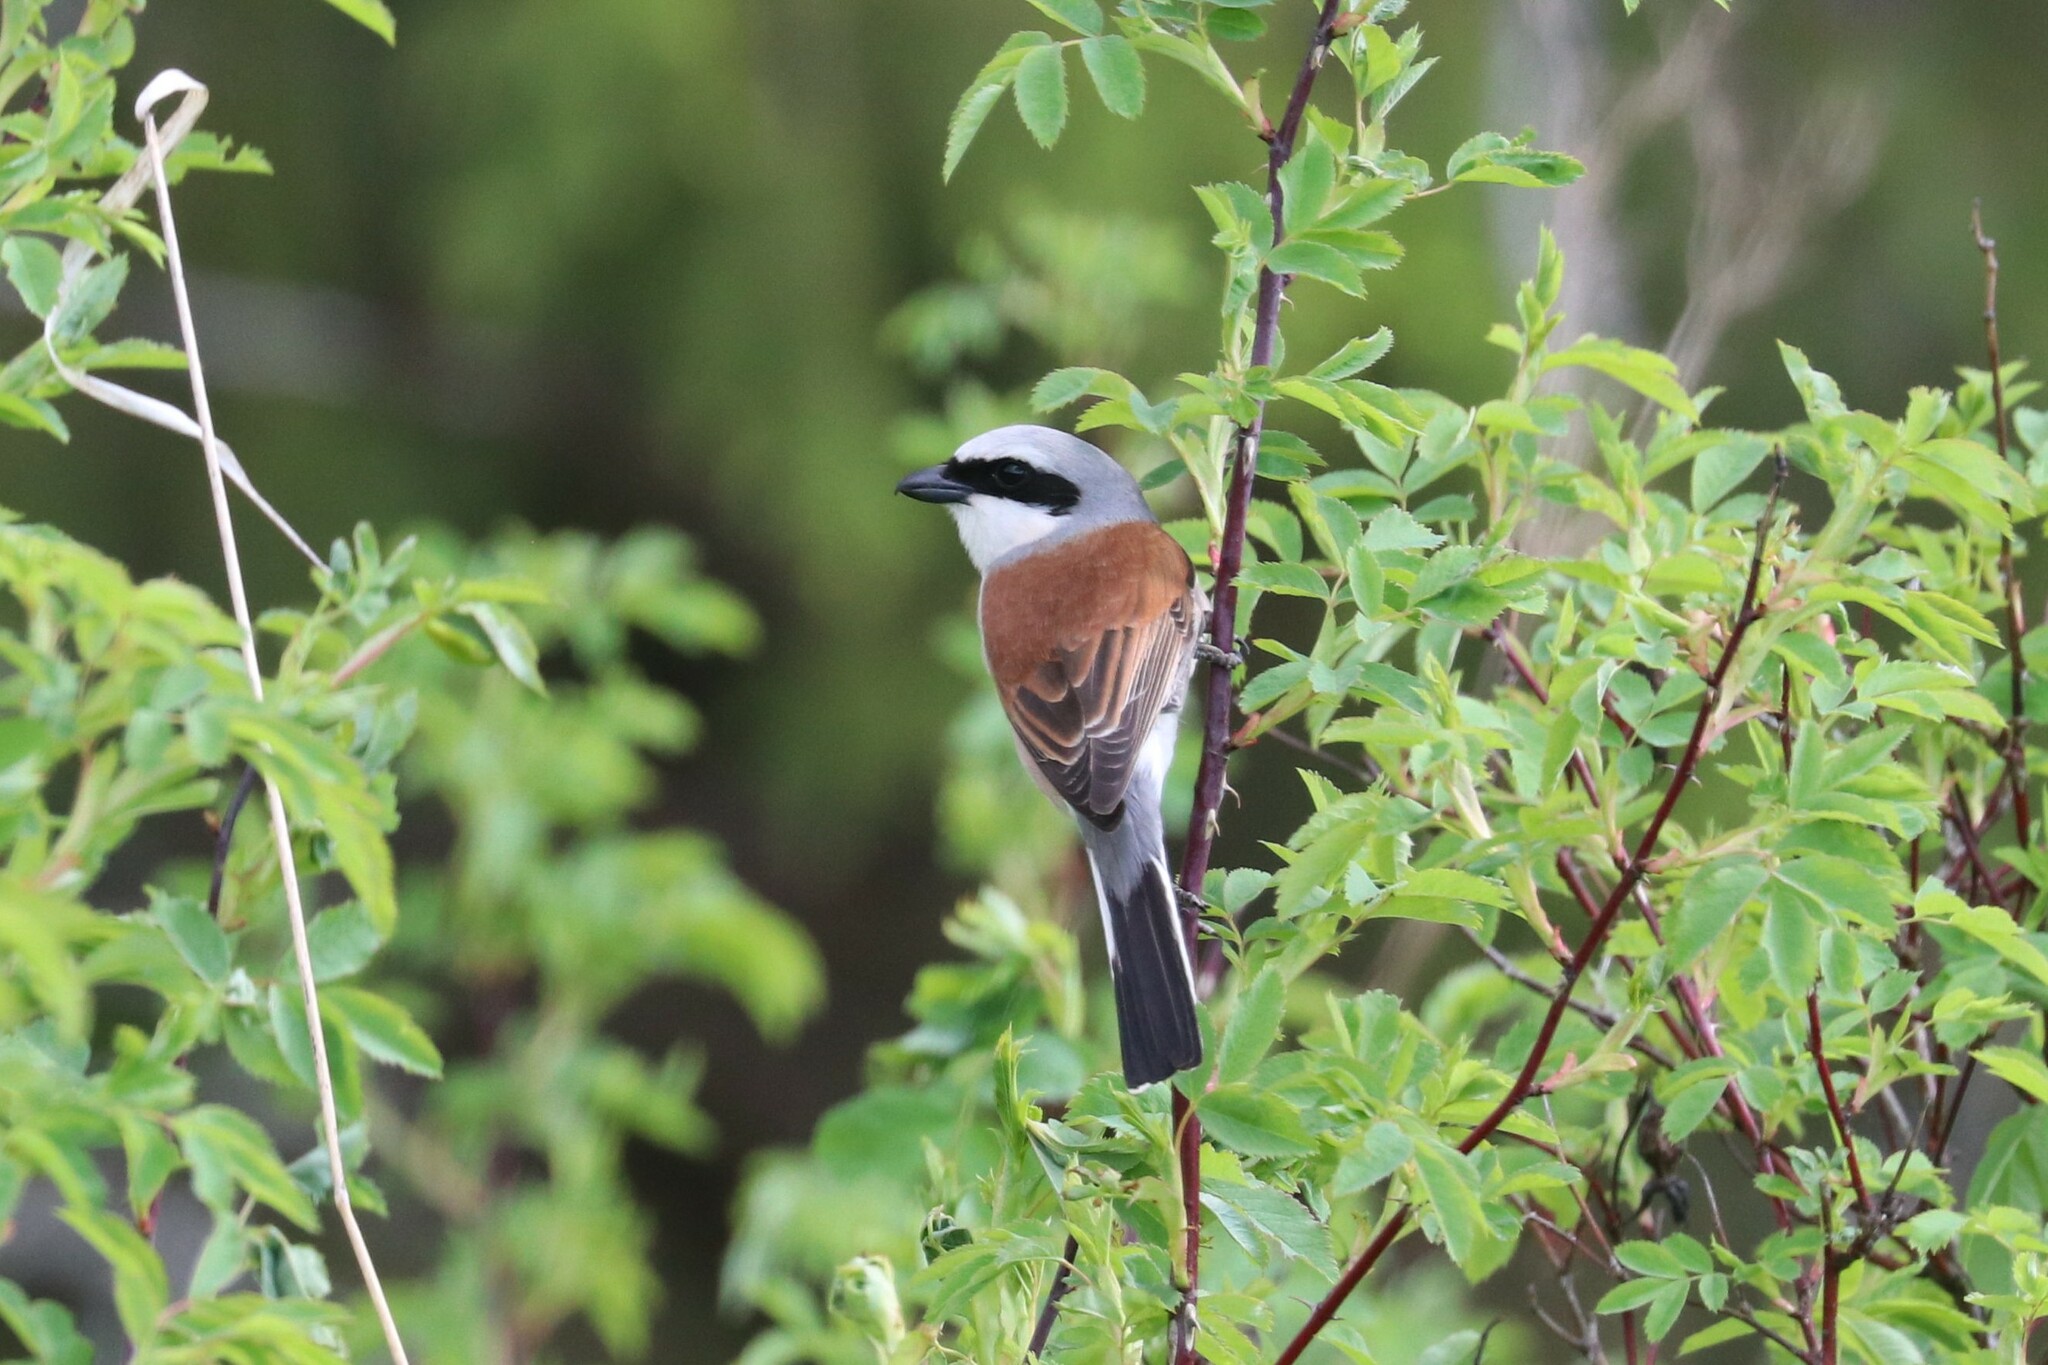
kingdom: Animalia
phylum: Chordata
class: Aves
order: Passeriformes
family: Laniidae
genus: Lanius
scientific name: Lanius collurio
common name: Red-backed shrike
